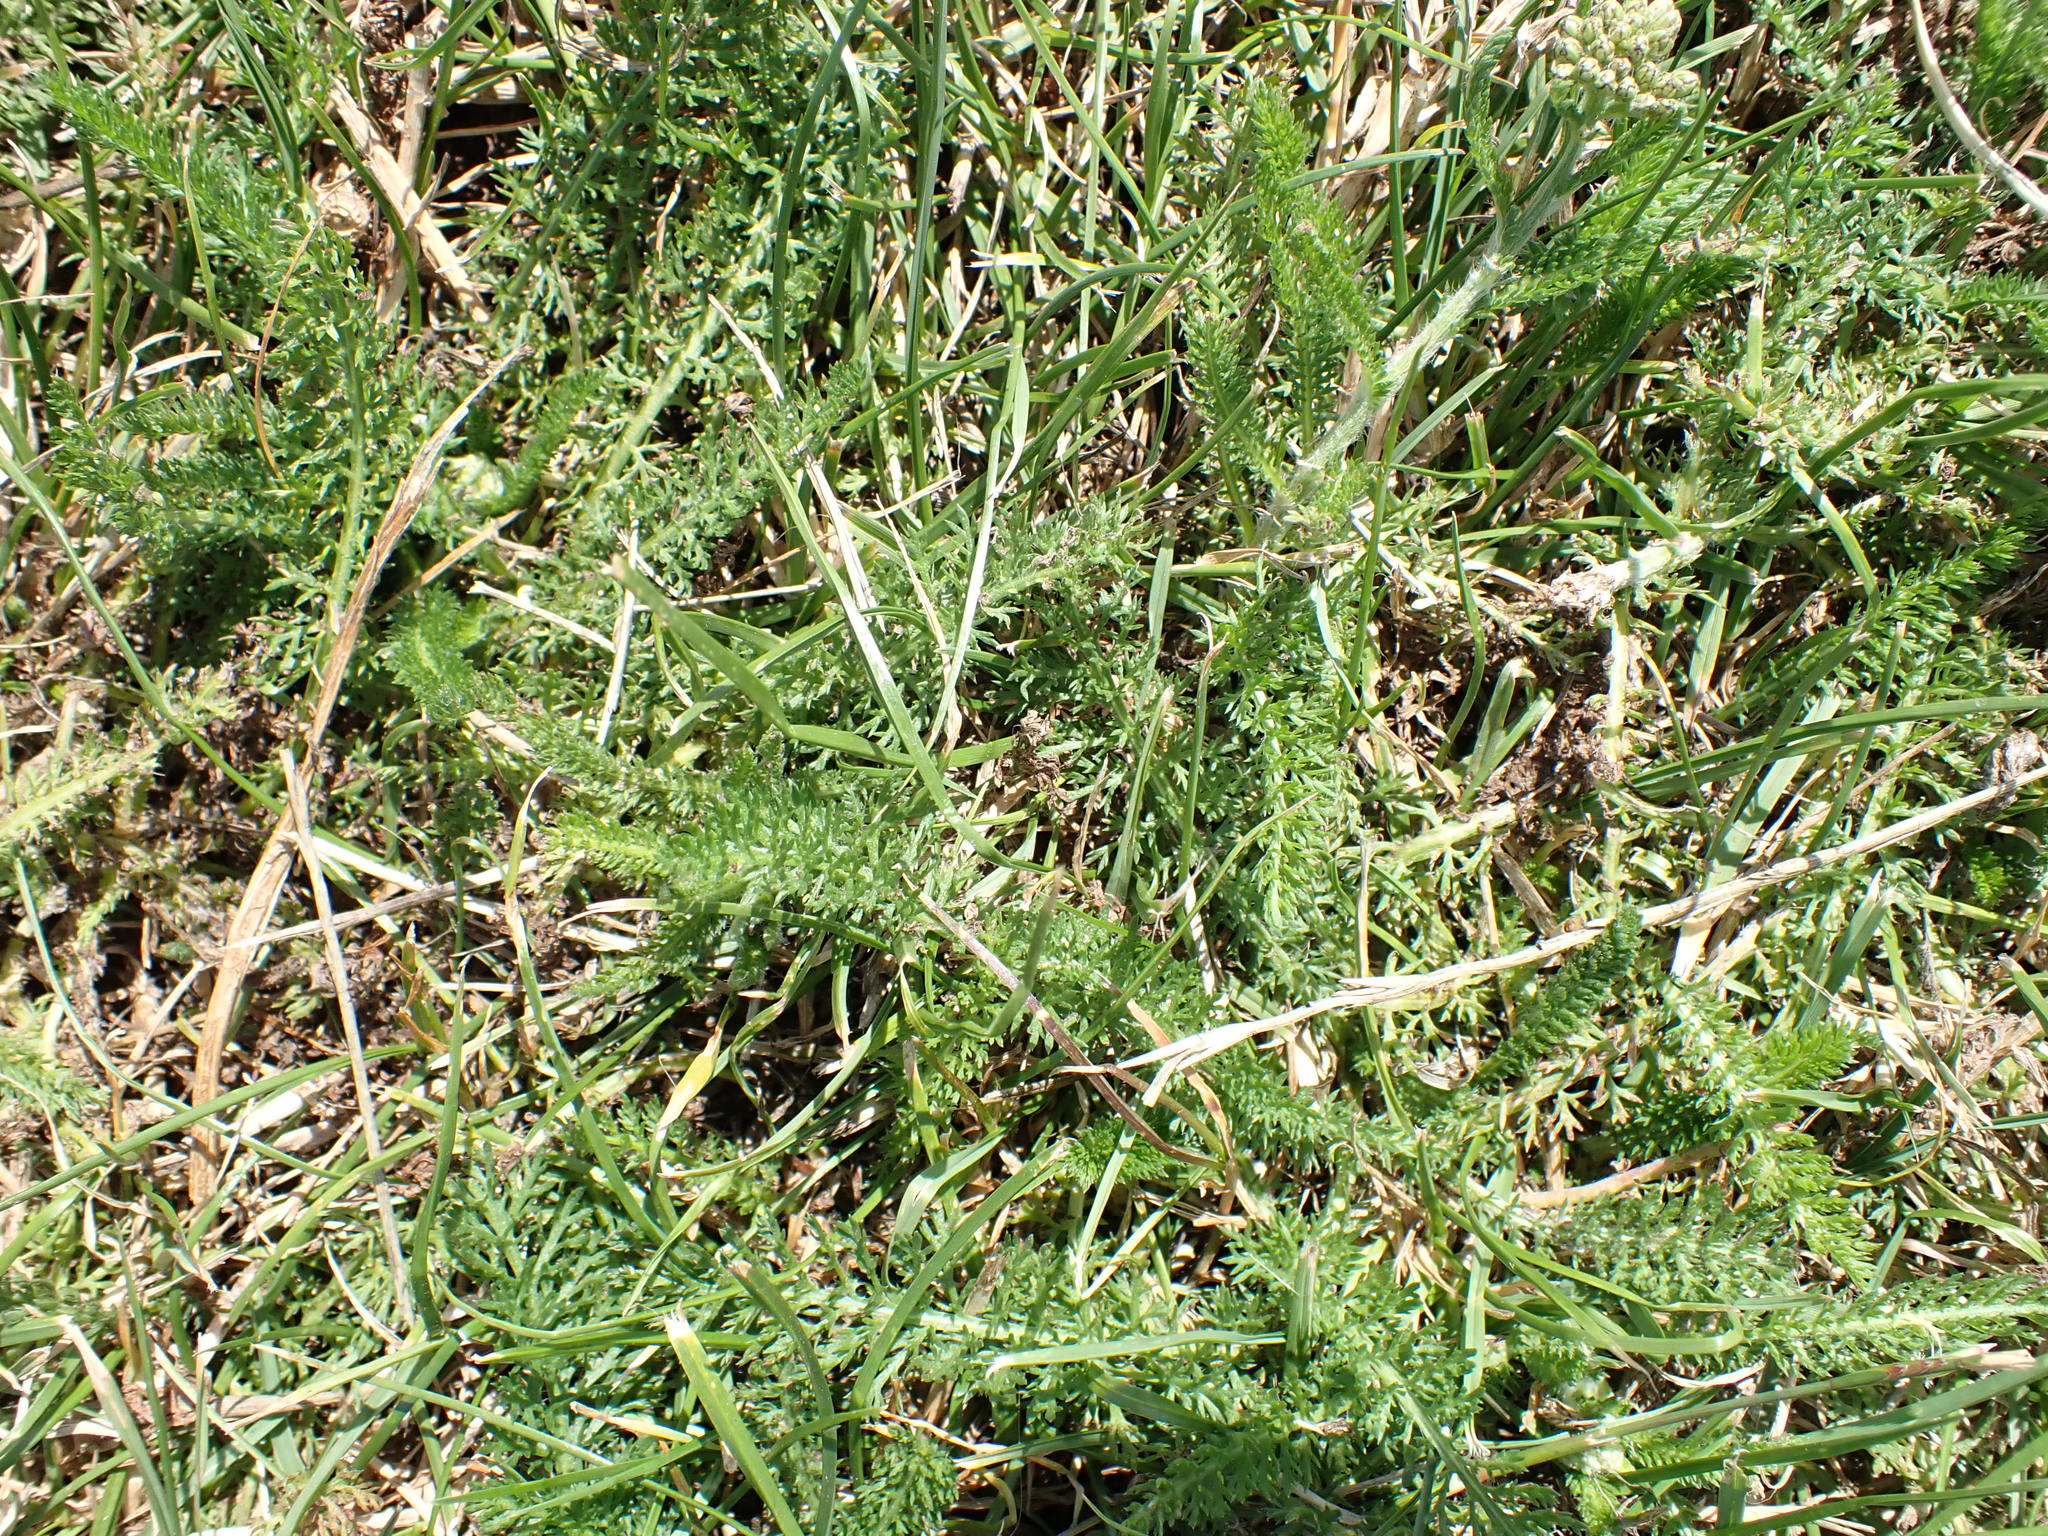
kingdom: Plantae
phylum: Tracheophyta
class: Magnoliopsida
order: Asterales
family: Asteraceae
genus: Achillea
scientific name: Achillea millefolium
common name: Yarrow
